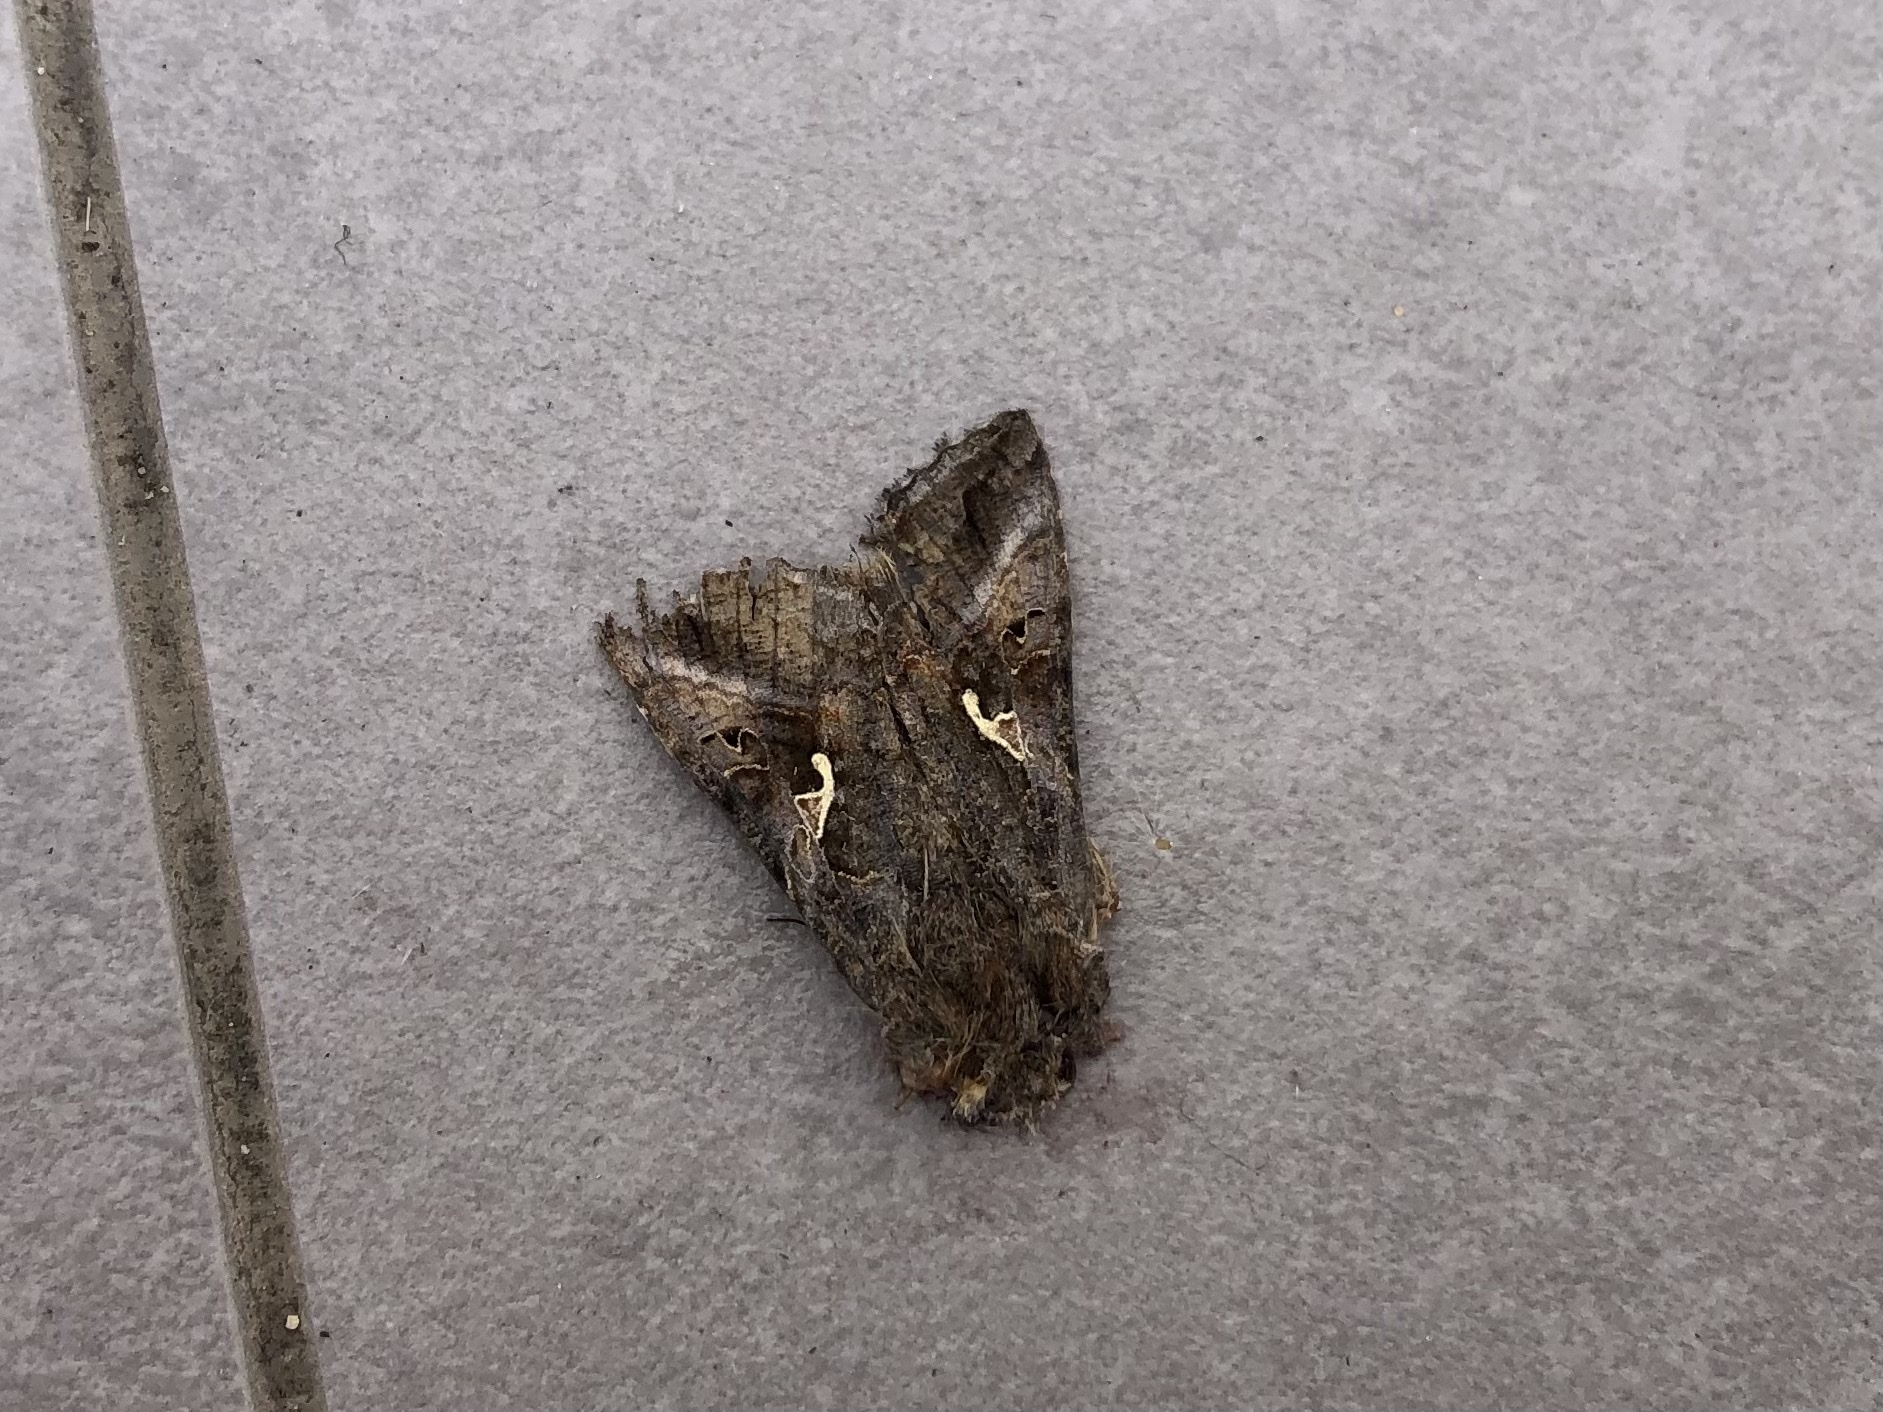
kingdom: Animalia
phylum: Arthropoda
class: Insecta
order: Lepidoptera
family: Noctuidae
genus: Autographa
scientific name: Autographa gamma
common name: Silver y
